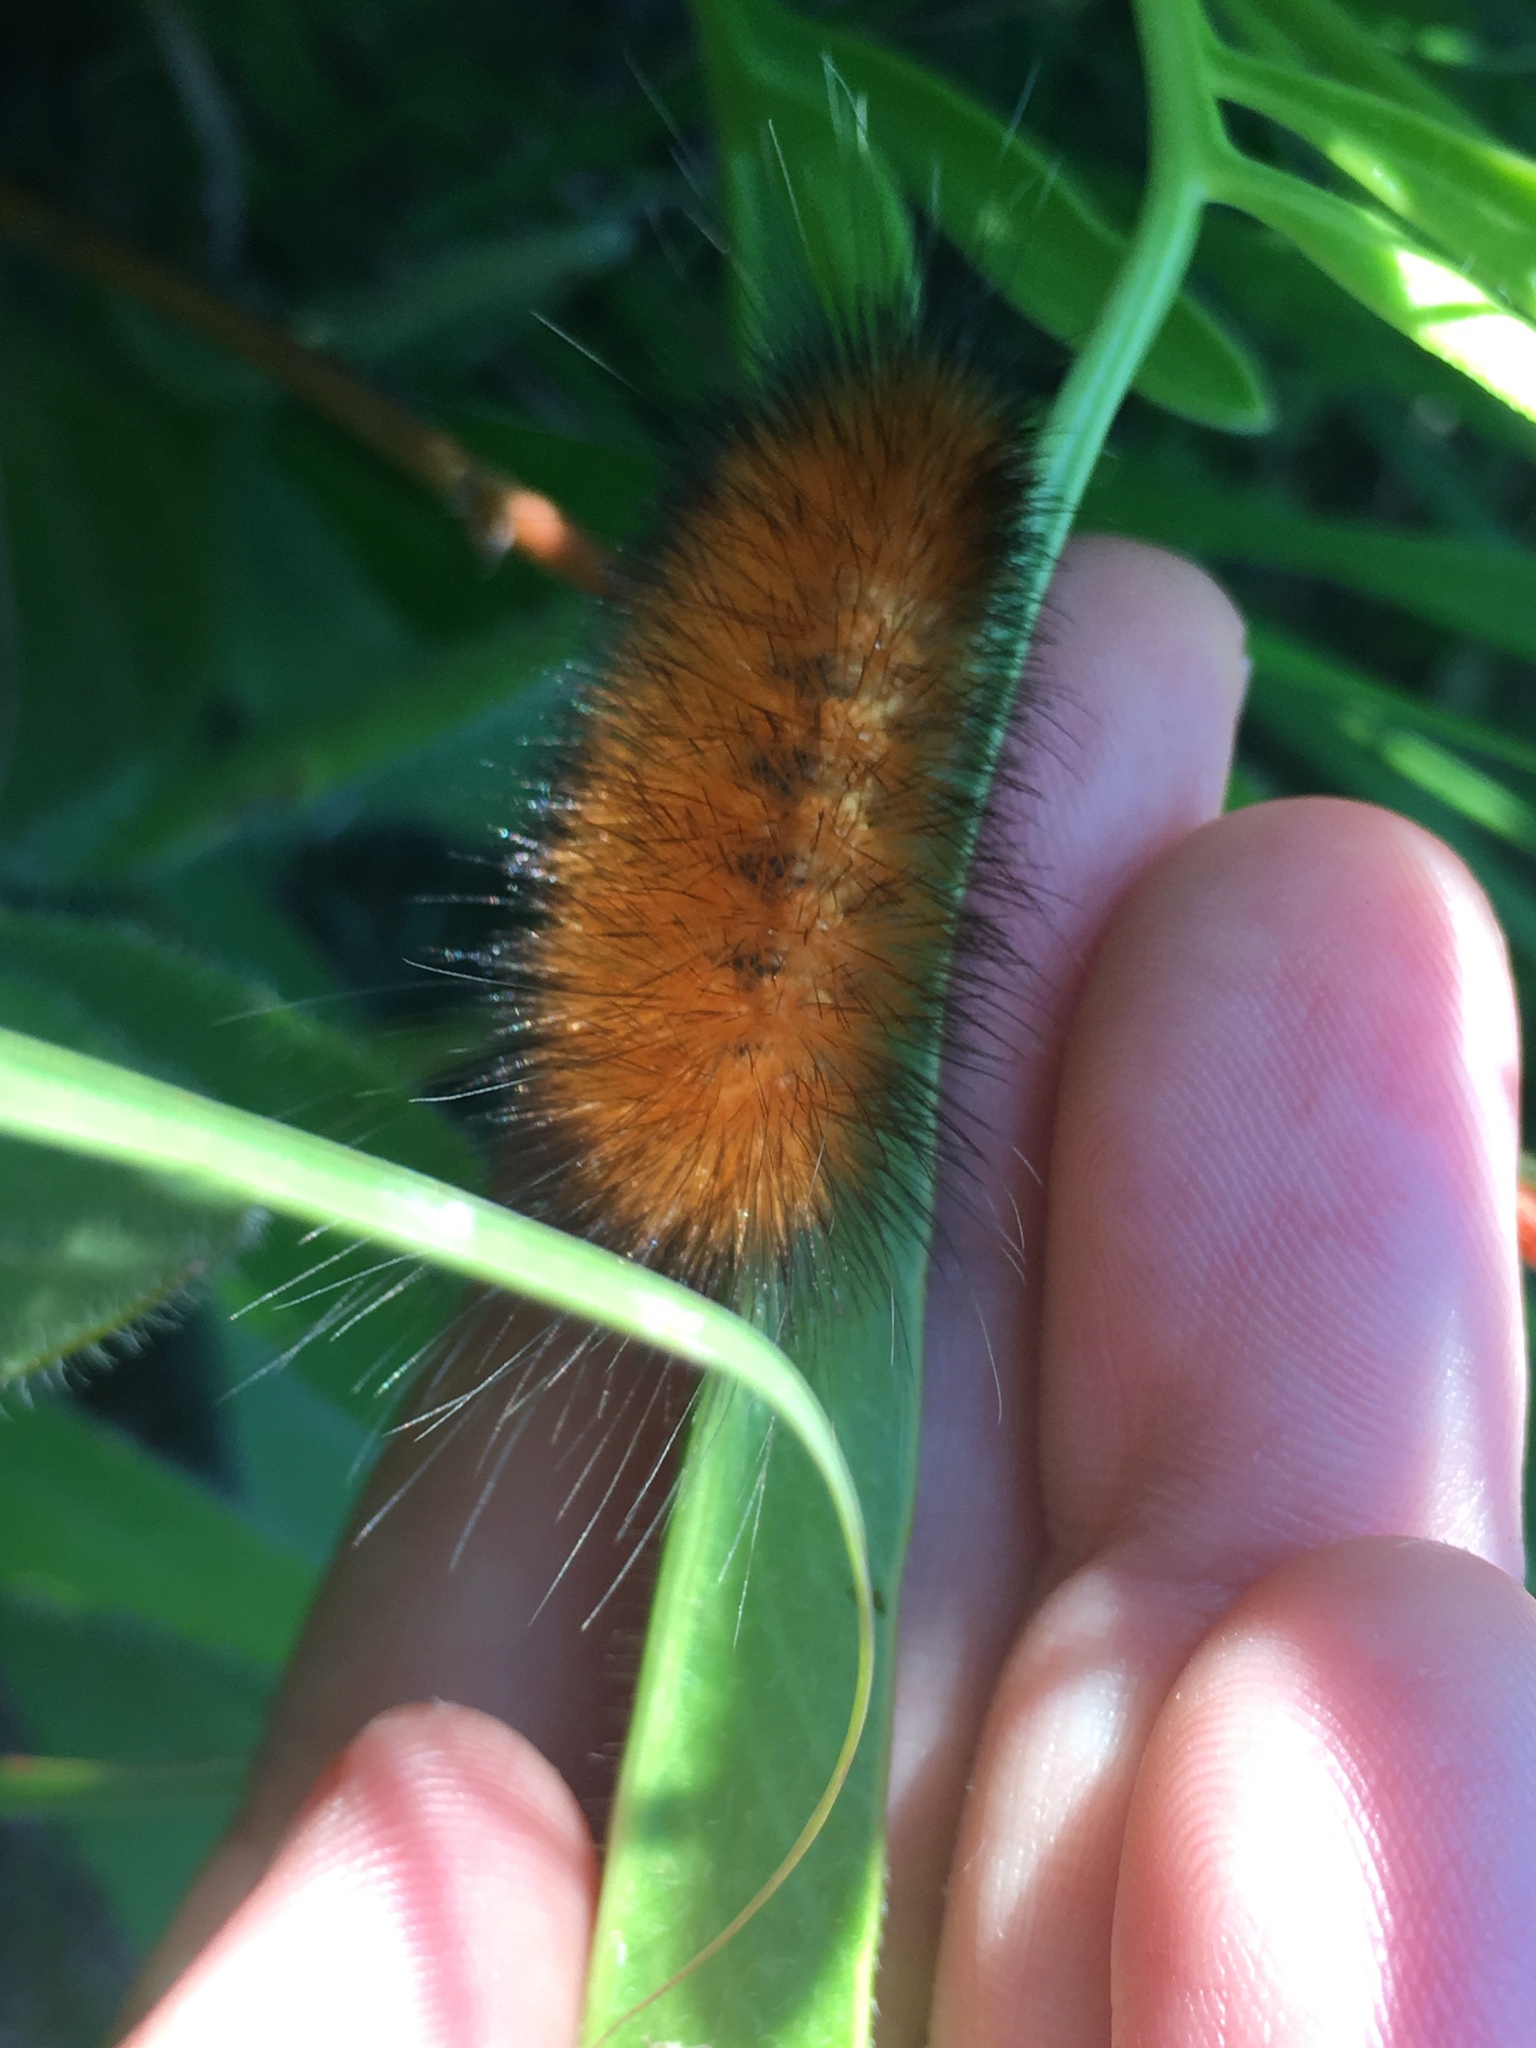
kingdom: Animalia
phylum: Arthropoda
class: Insecta
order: Lepidoptera
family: Erebidae
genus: Spilosoma
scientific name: Spilosoma virginica
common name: Virginia tiger moth
